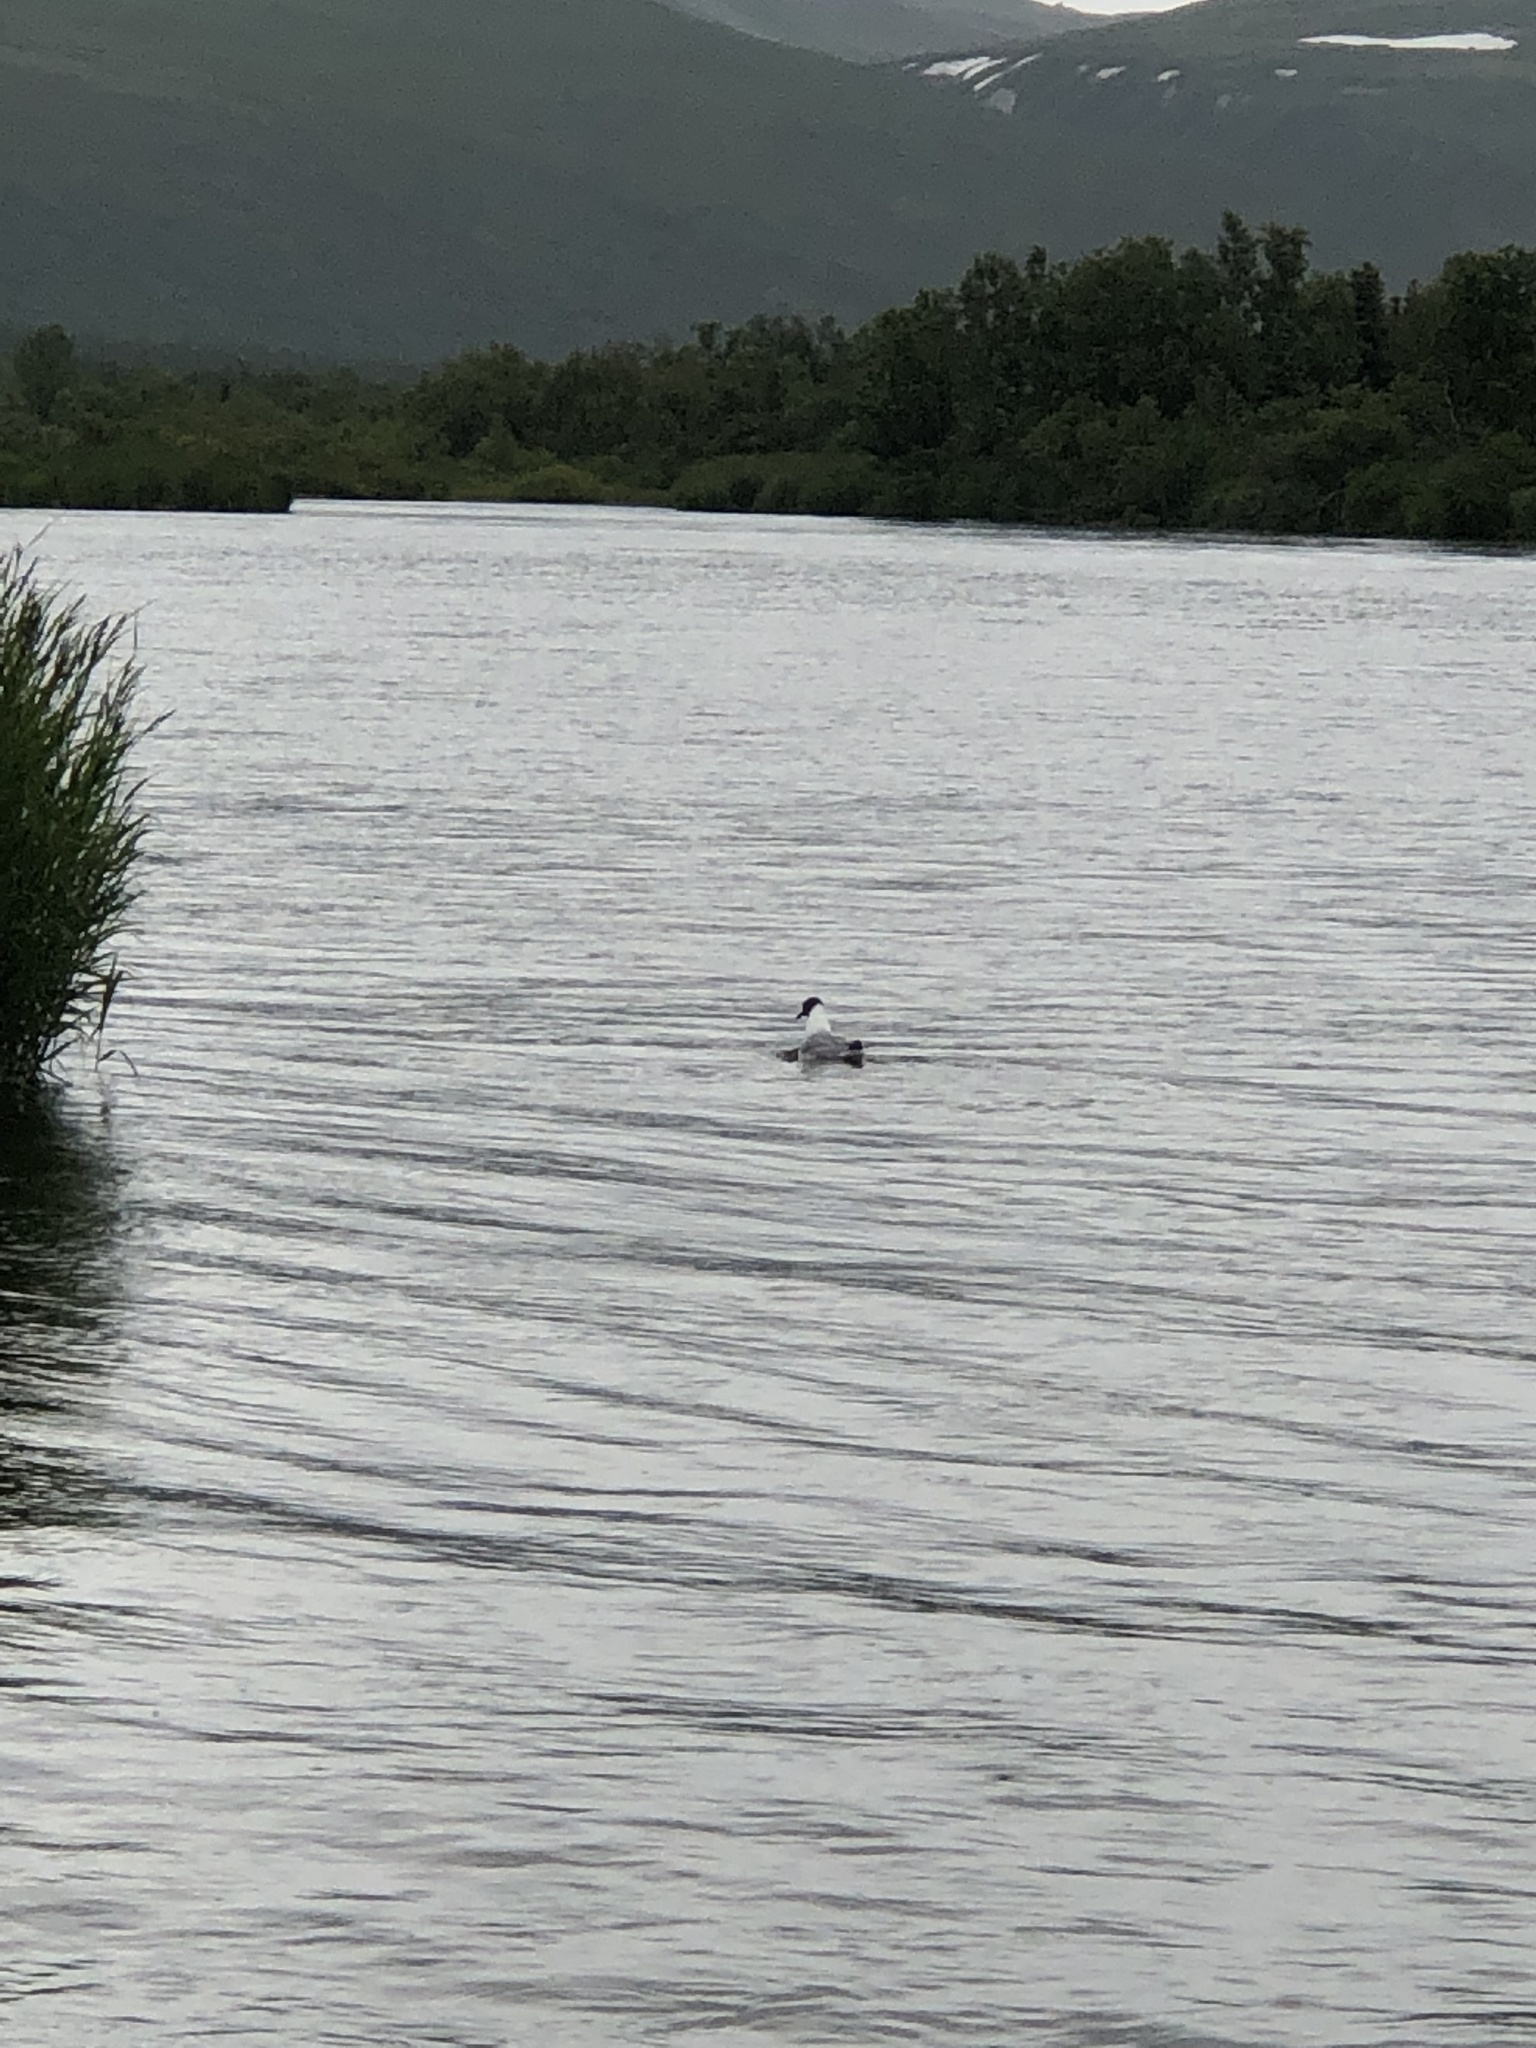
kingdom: Animalia
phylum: Chordata
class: Aves
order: Charadriiformes
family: Laridae
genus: Chroicocephalus
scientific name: Chroicocephalus philadelphia
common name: Bonaparte's gull
